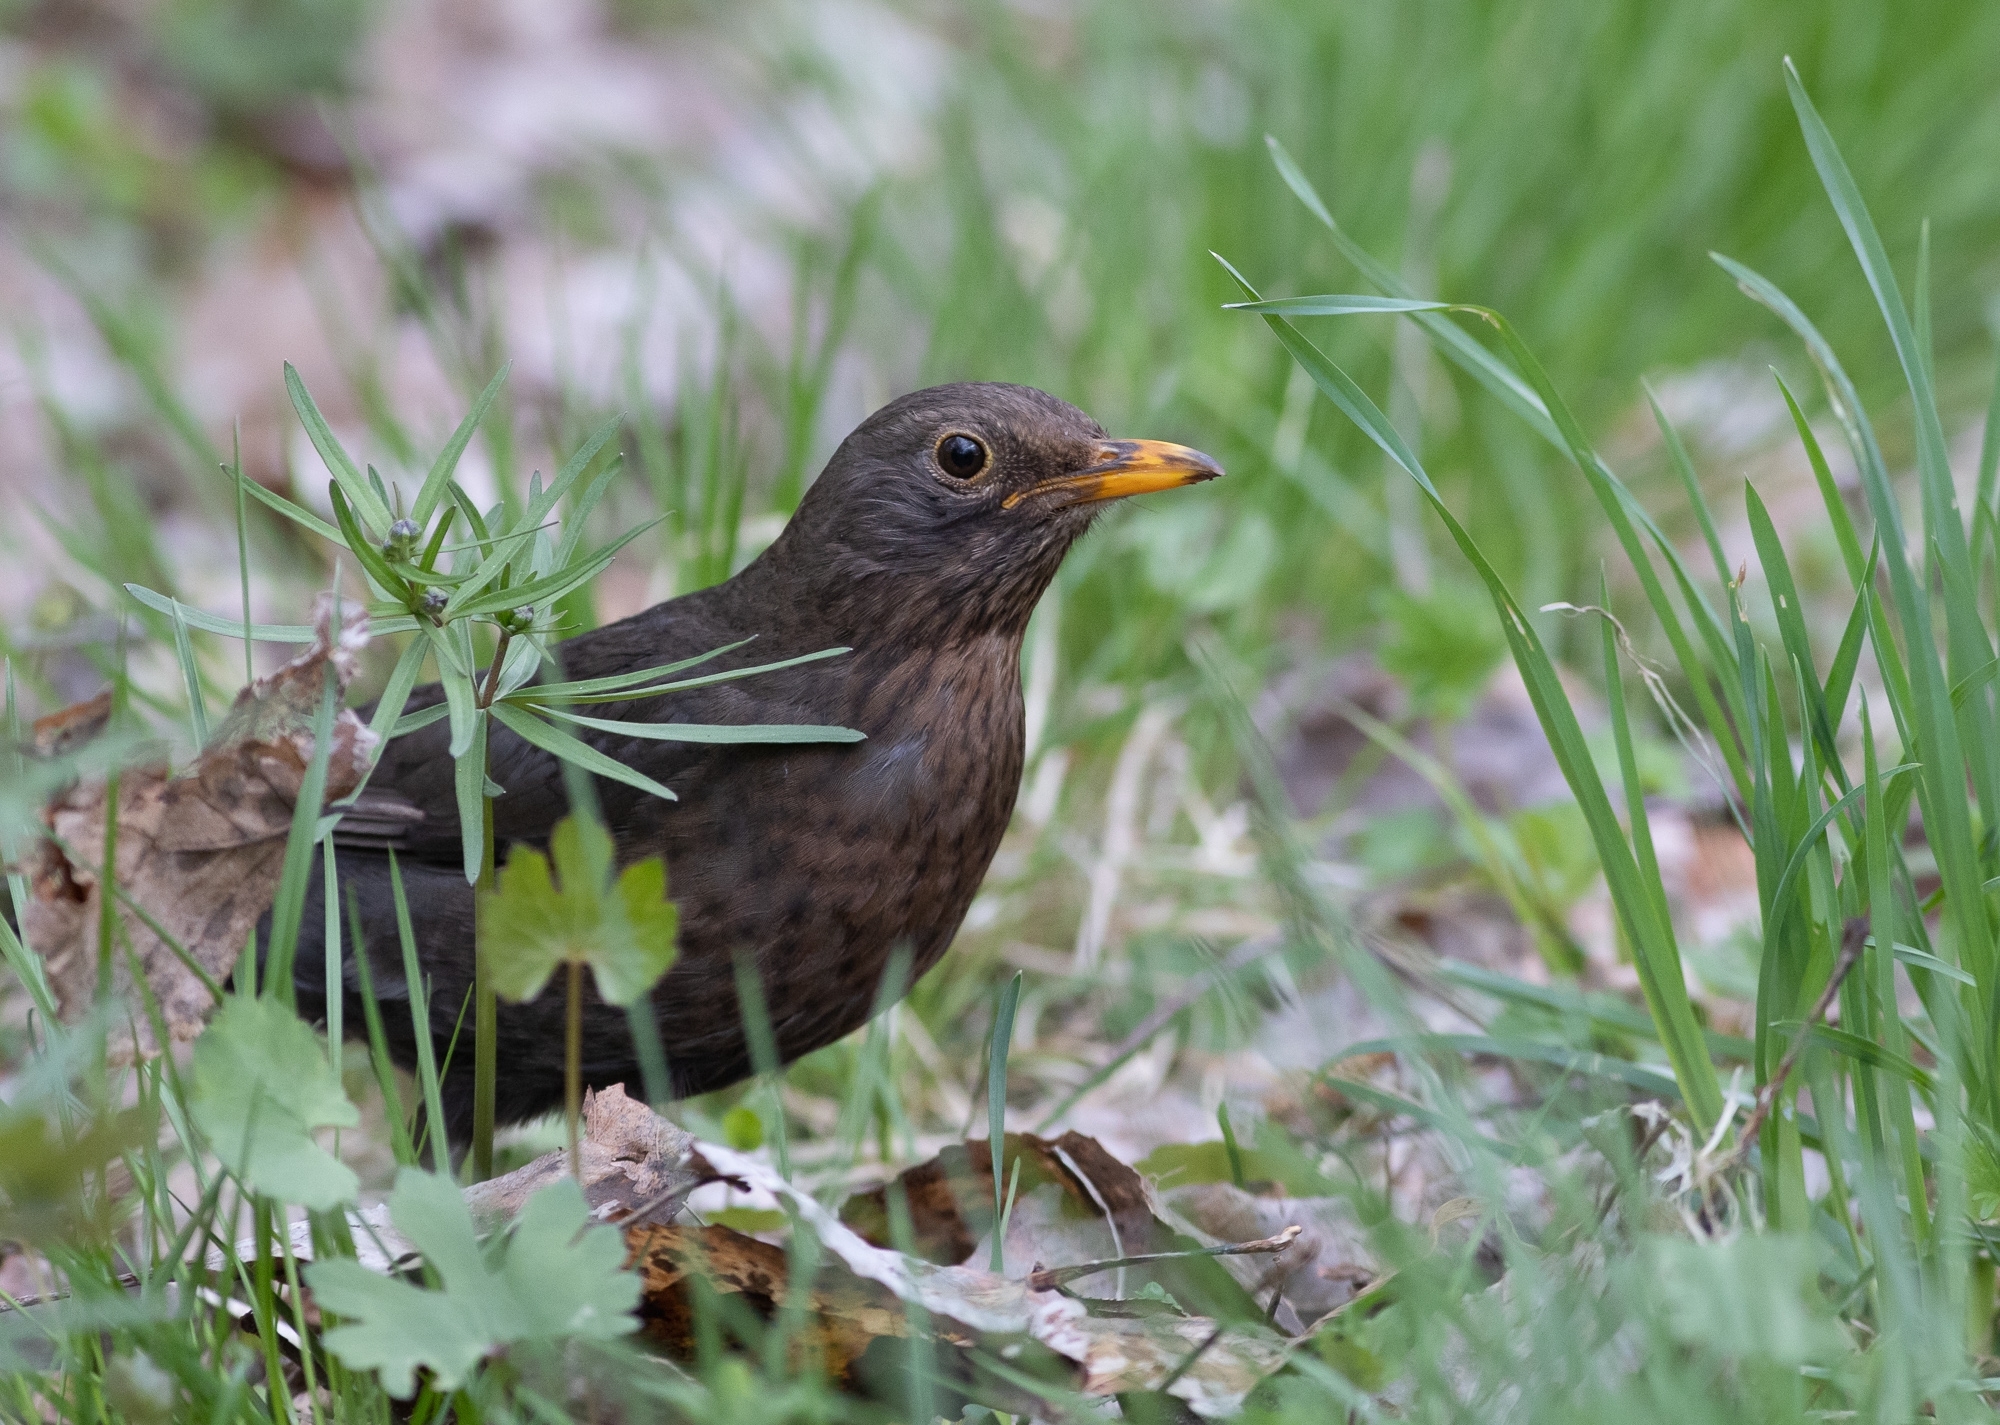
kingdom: Animalia
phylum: Chordata
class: Aves
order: Passeriformes
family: Turdidae
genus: Turdus
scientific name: Turdus merula
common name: Common blackbird
